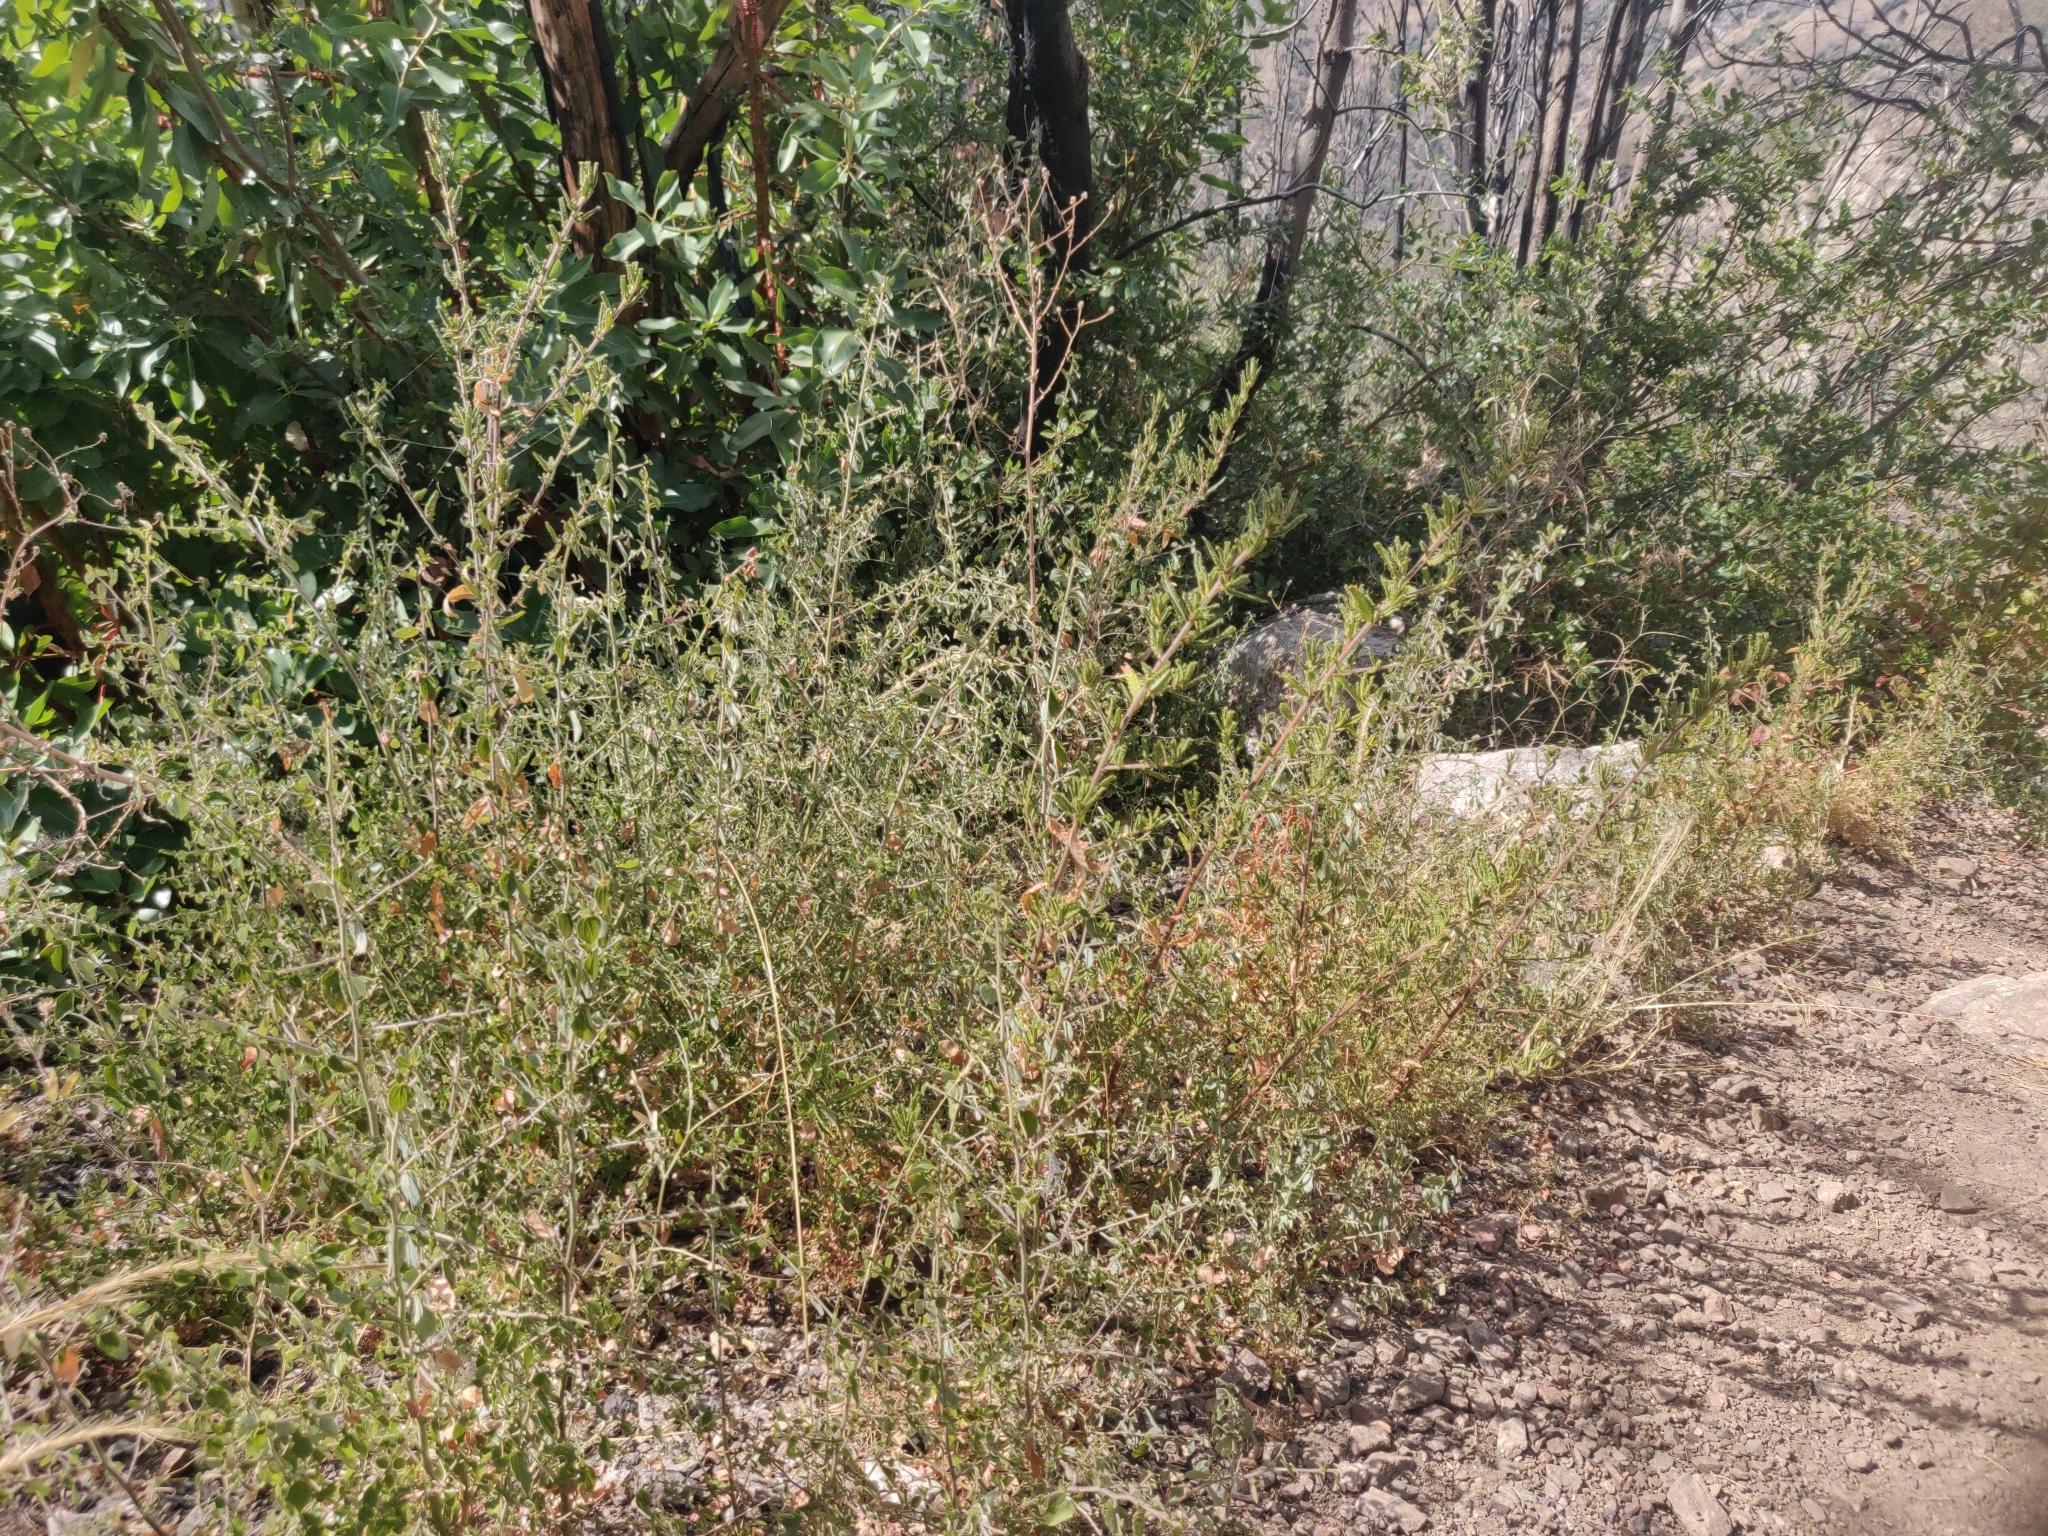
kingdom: Plantae
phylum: Tracheophyta
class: Magnoliopsida
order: Rosales
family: Rhamnaceae
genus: Ceanothus
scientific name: Ceanothus papillosus
